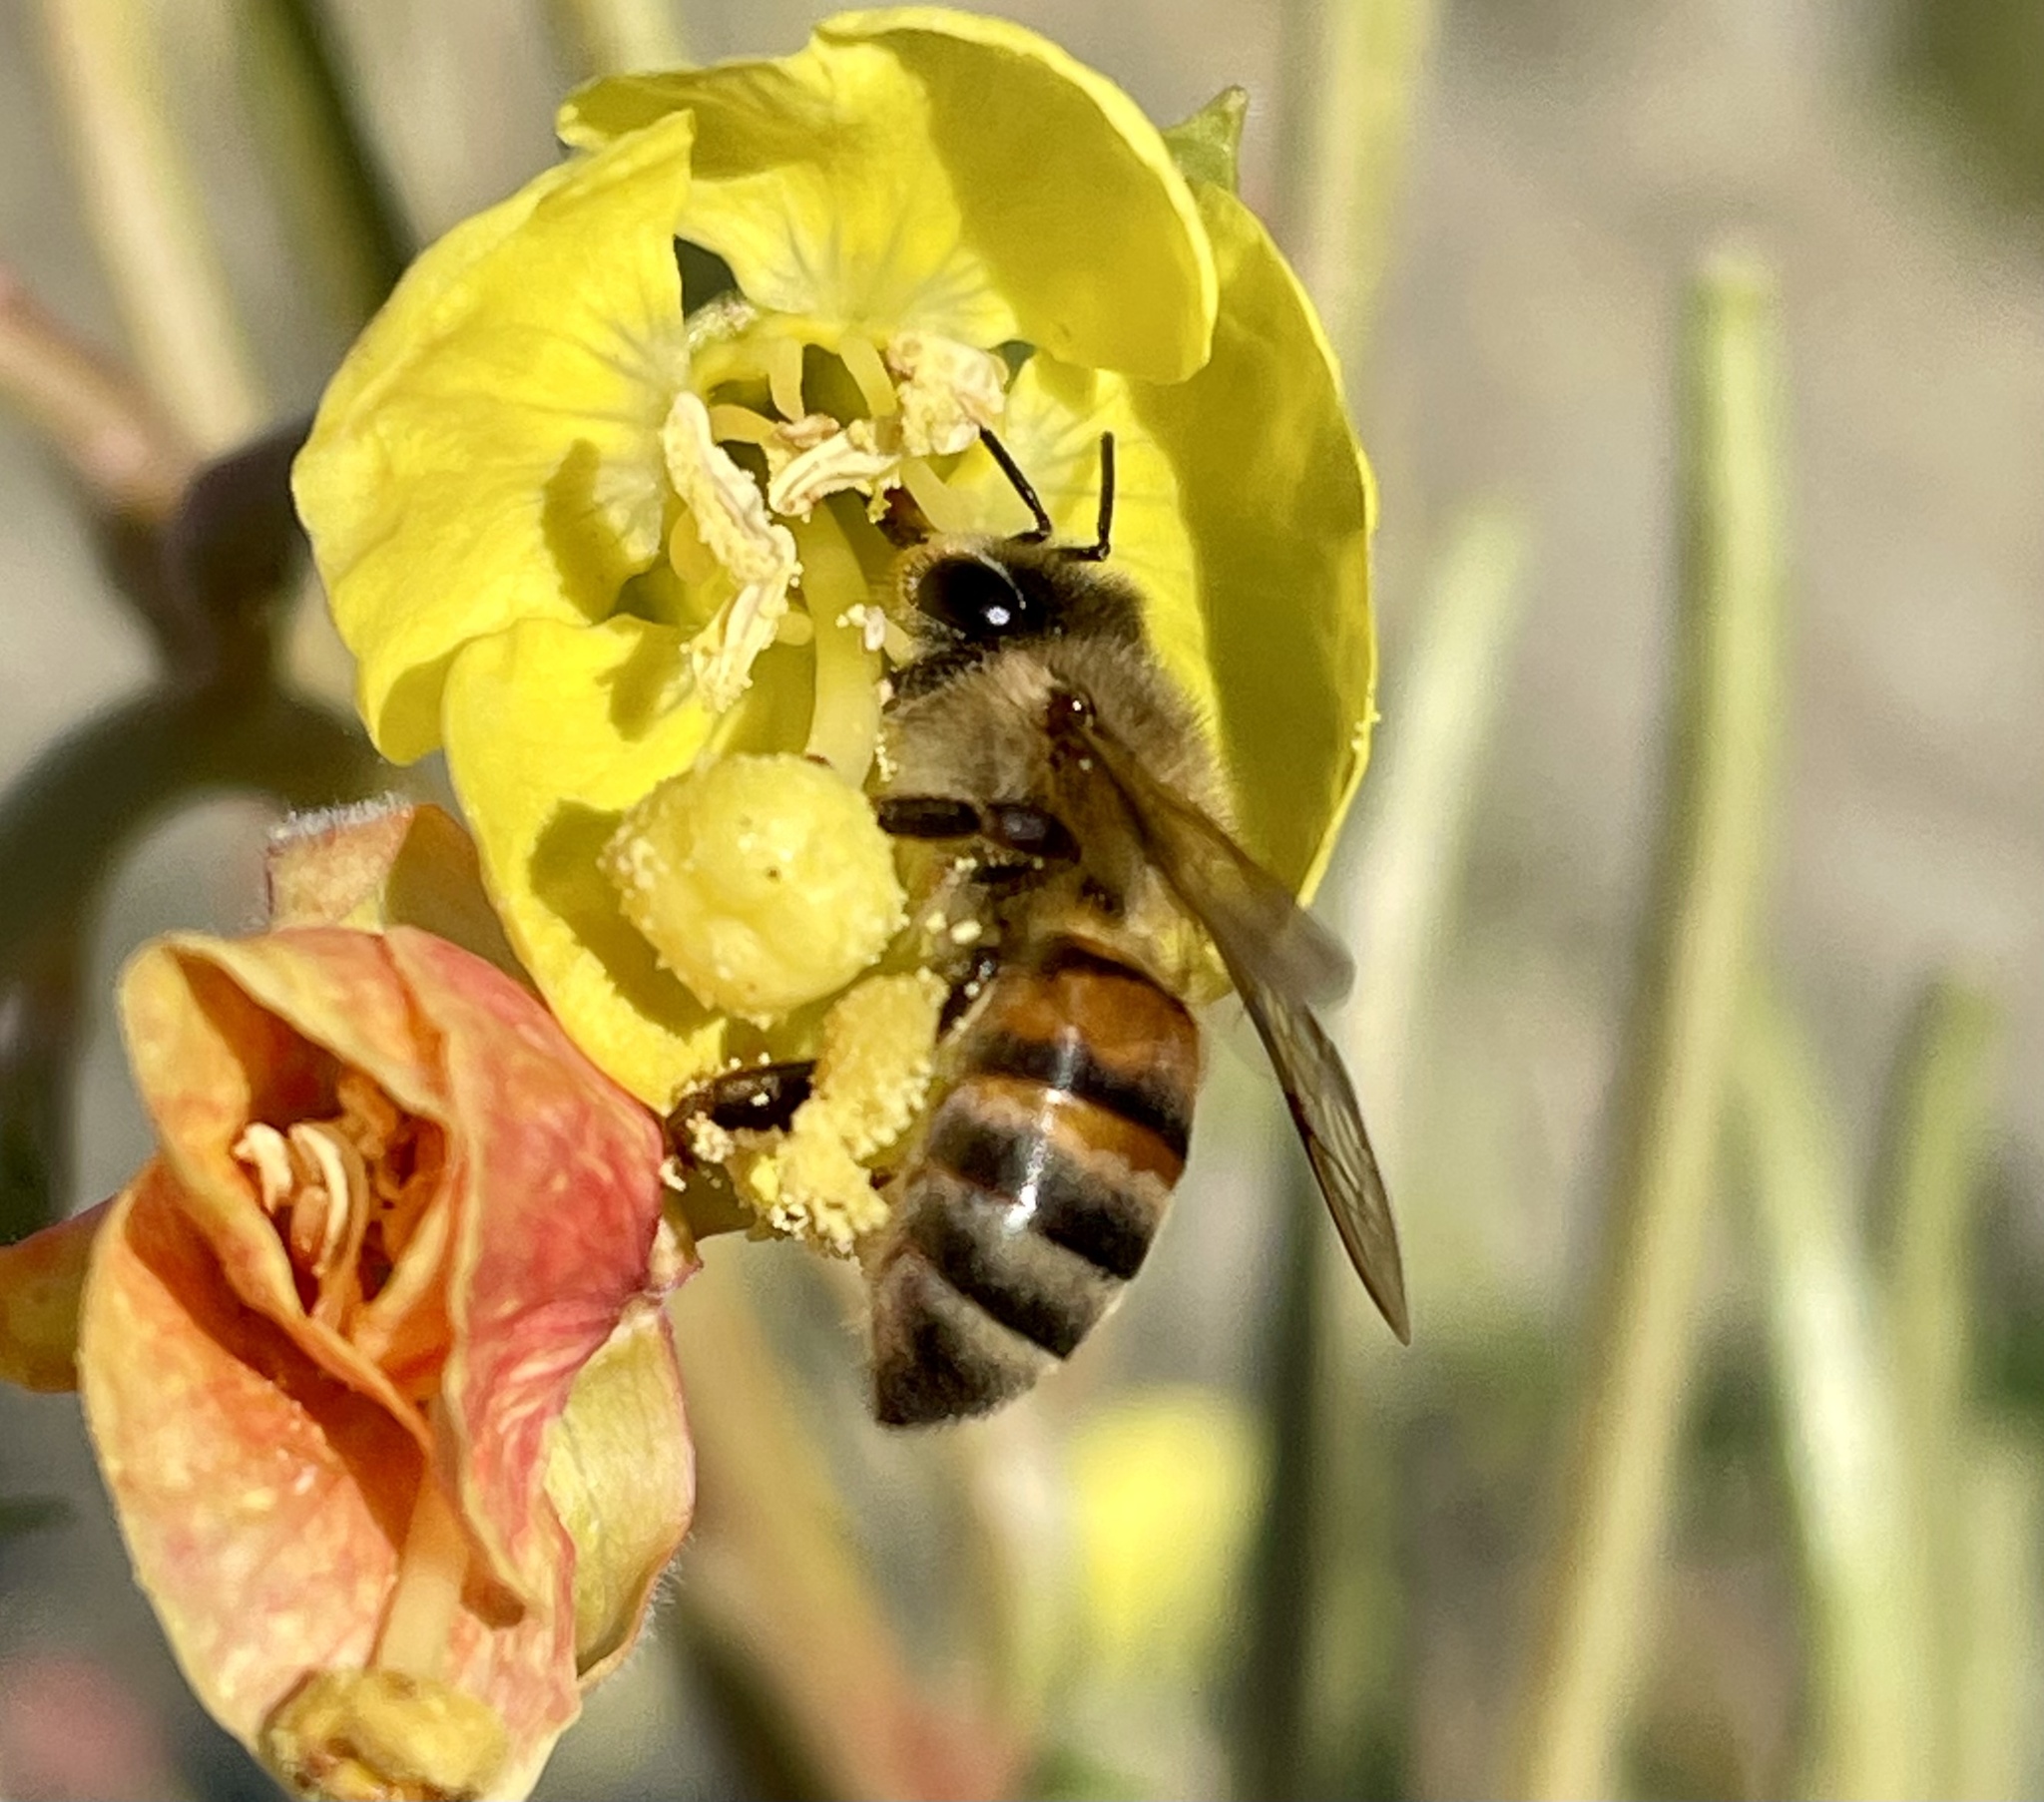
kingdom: Animalia
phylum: Arthropoda
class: Insecta
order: Hymenoptera
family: Apidae
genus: Apis
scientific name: Apis mellifera
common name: Honey bee
